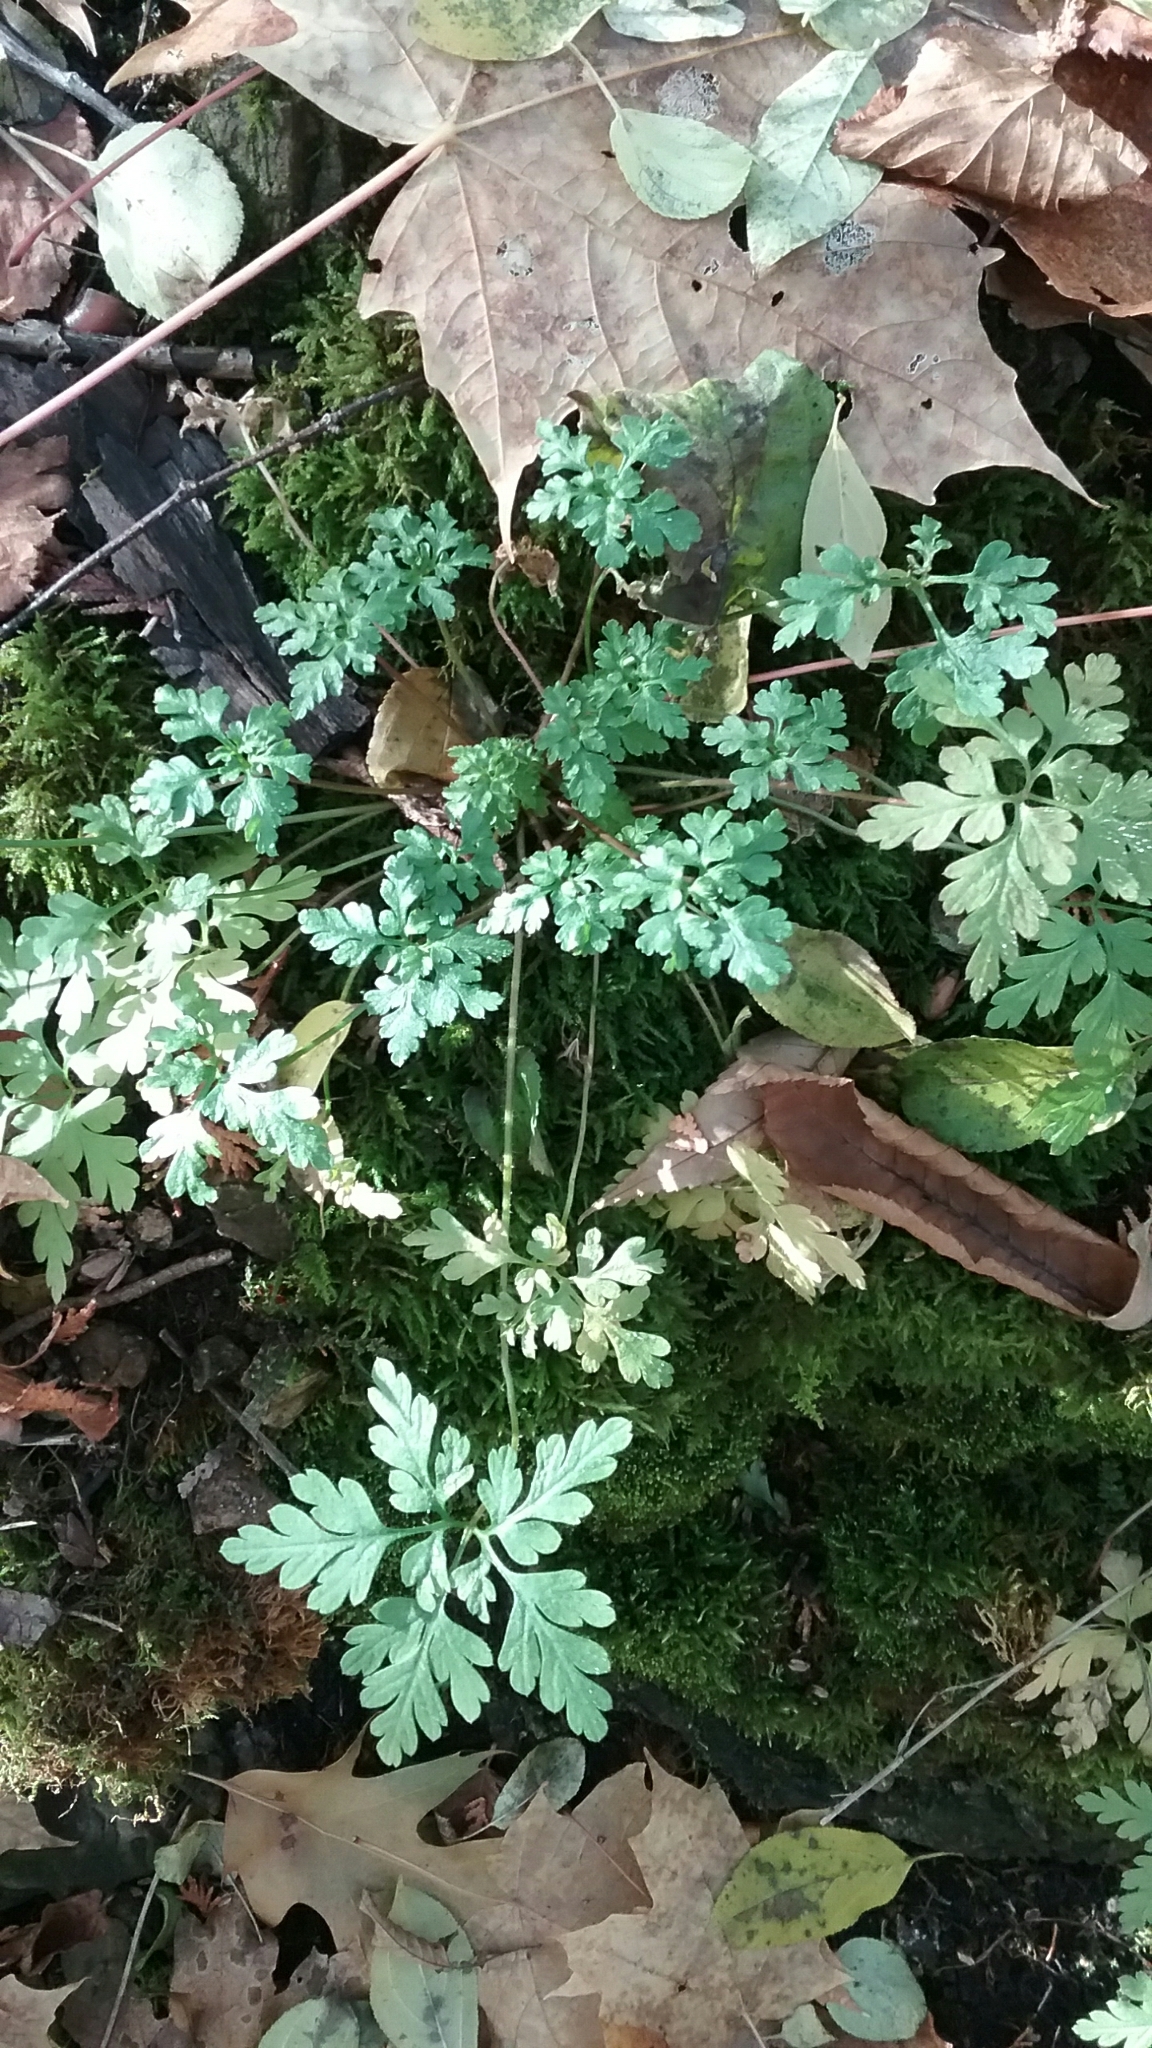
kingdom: Plantae
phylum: Tracheophyta
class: Magnoliopsida
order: Geraniales
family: Geraniaceae
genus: Geranium
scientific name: Geranium robertianum
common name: Herb-robert
